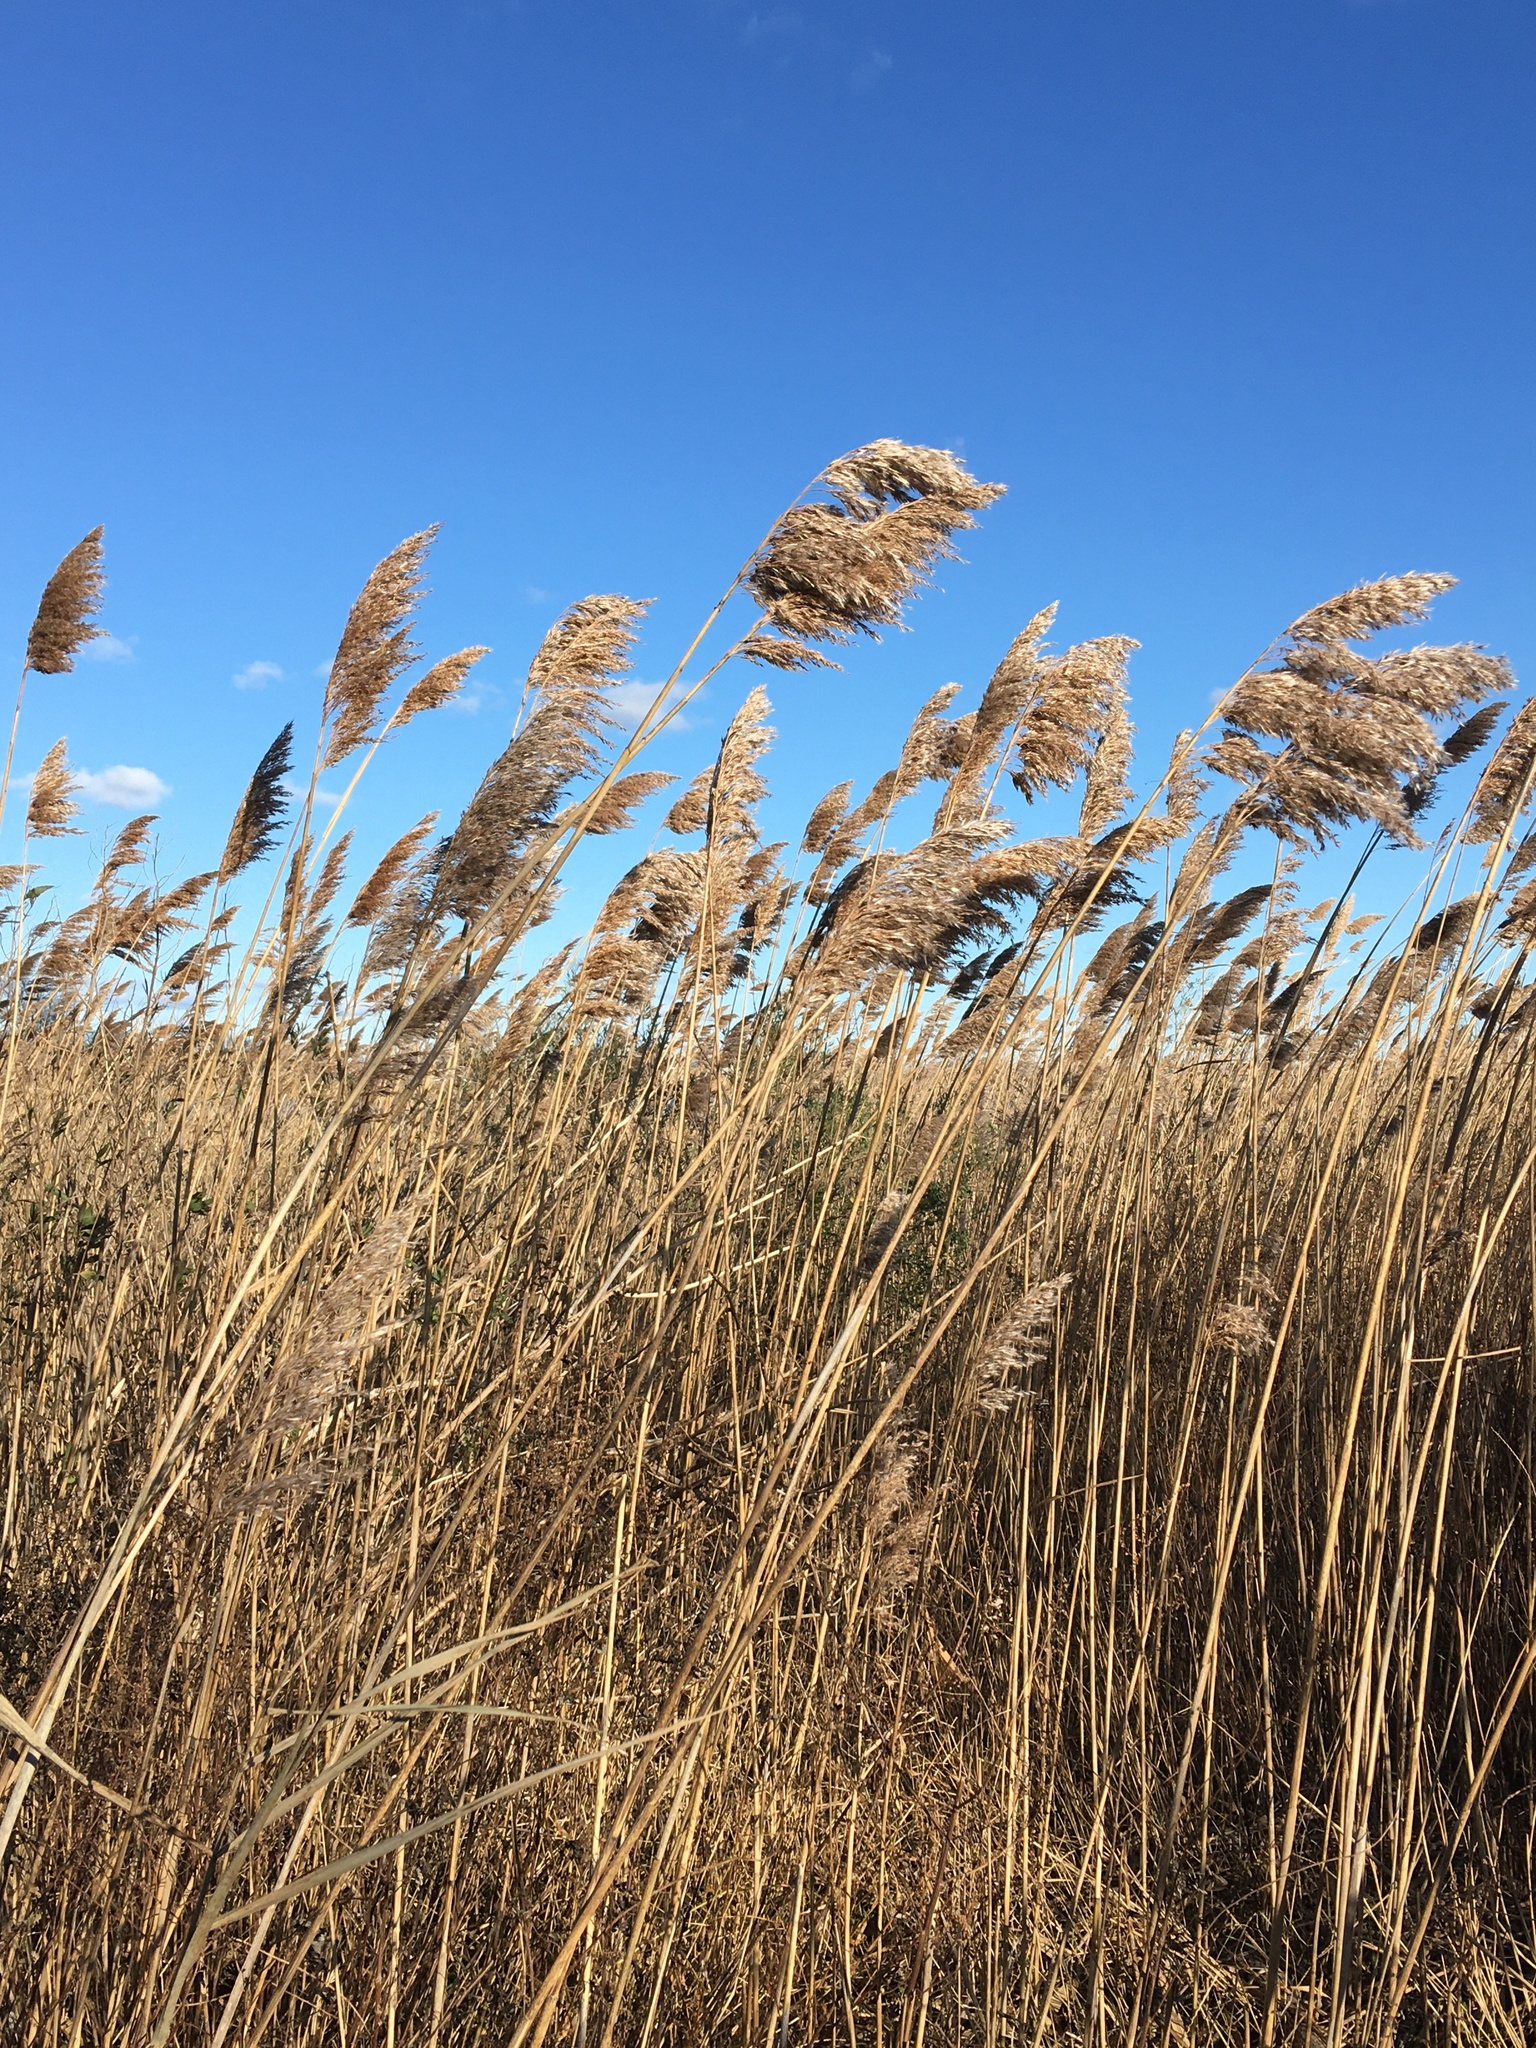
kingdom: Plantae
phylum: Tracheophyta
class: Liliopsida
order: Poales
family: Poaceae
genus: Phragmites
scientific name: Phragmites australis
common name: Common reed
